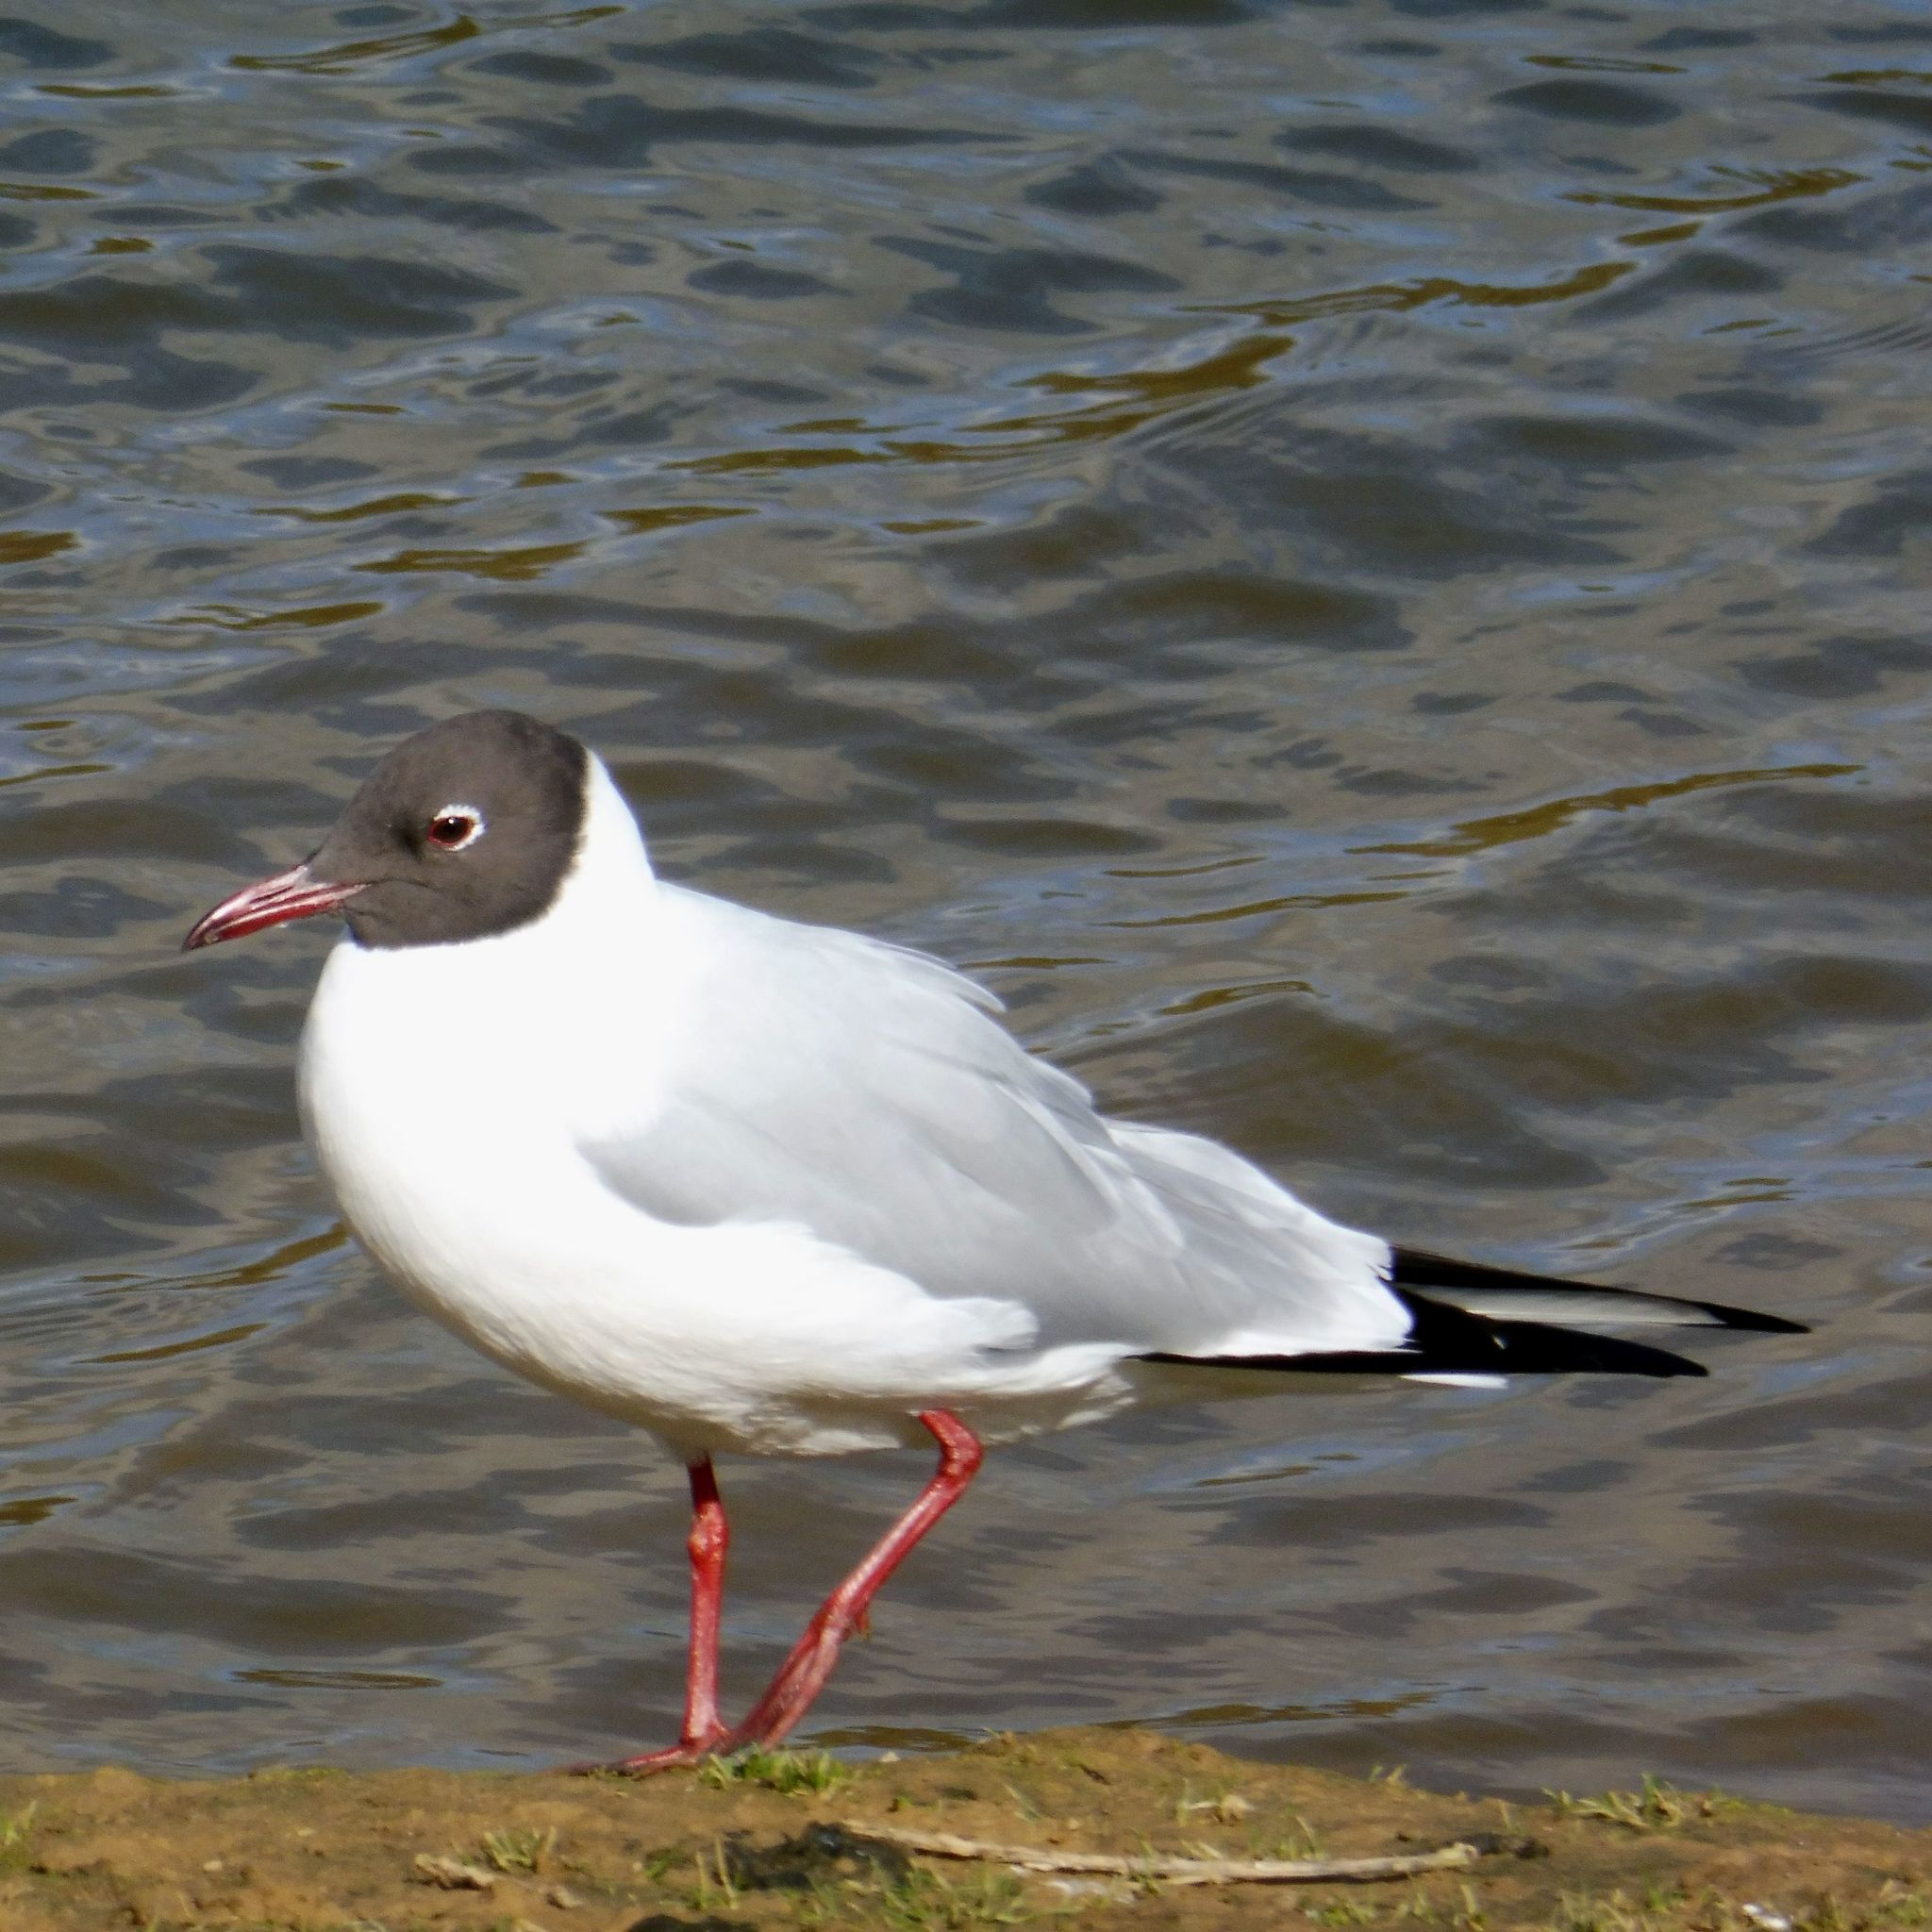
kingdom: Animalia
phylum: Chordata
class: Aves
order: Charadriiformes
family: Laridae
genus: Chroicocephalus
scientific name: Chroicocephalus ridibundus
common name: Black-headed gull
